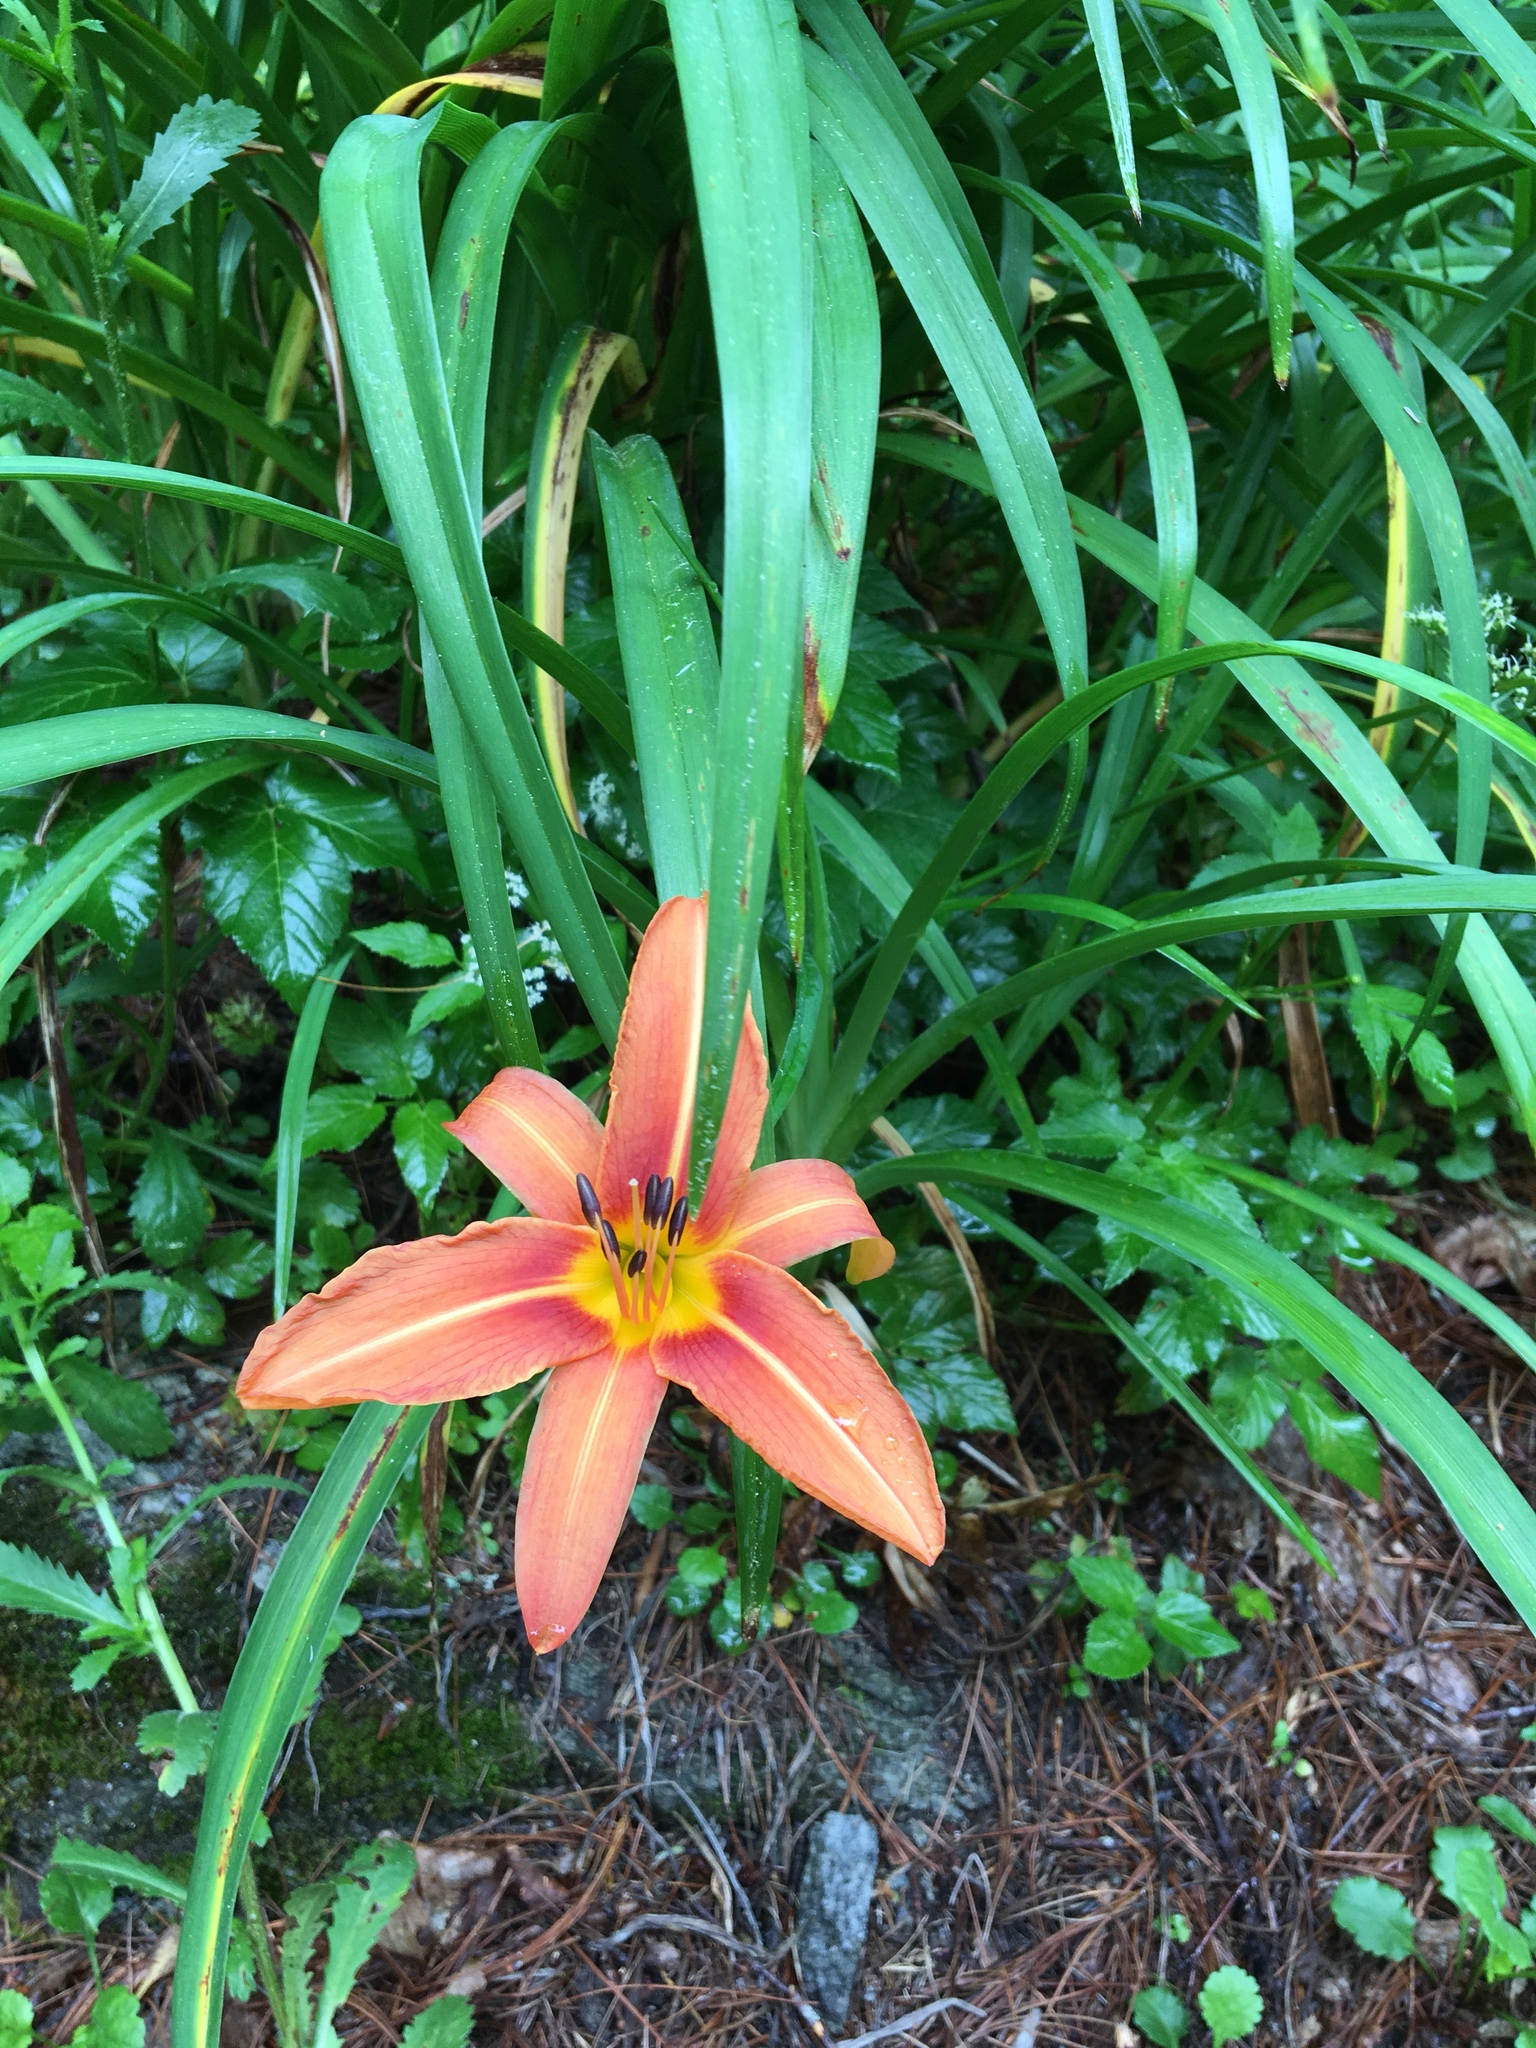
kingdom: Plantae
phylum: Tracheophyta
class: Liliopsida
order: Asparagales
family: Asphodelaceae
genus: Hemerocallis
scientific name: Hemerocallis fulva
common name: Orange day-lily
